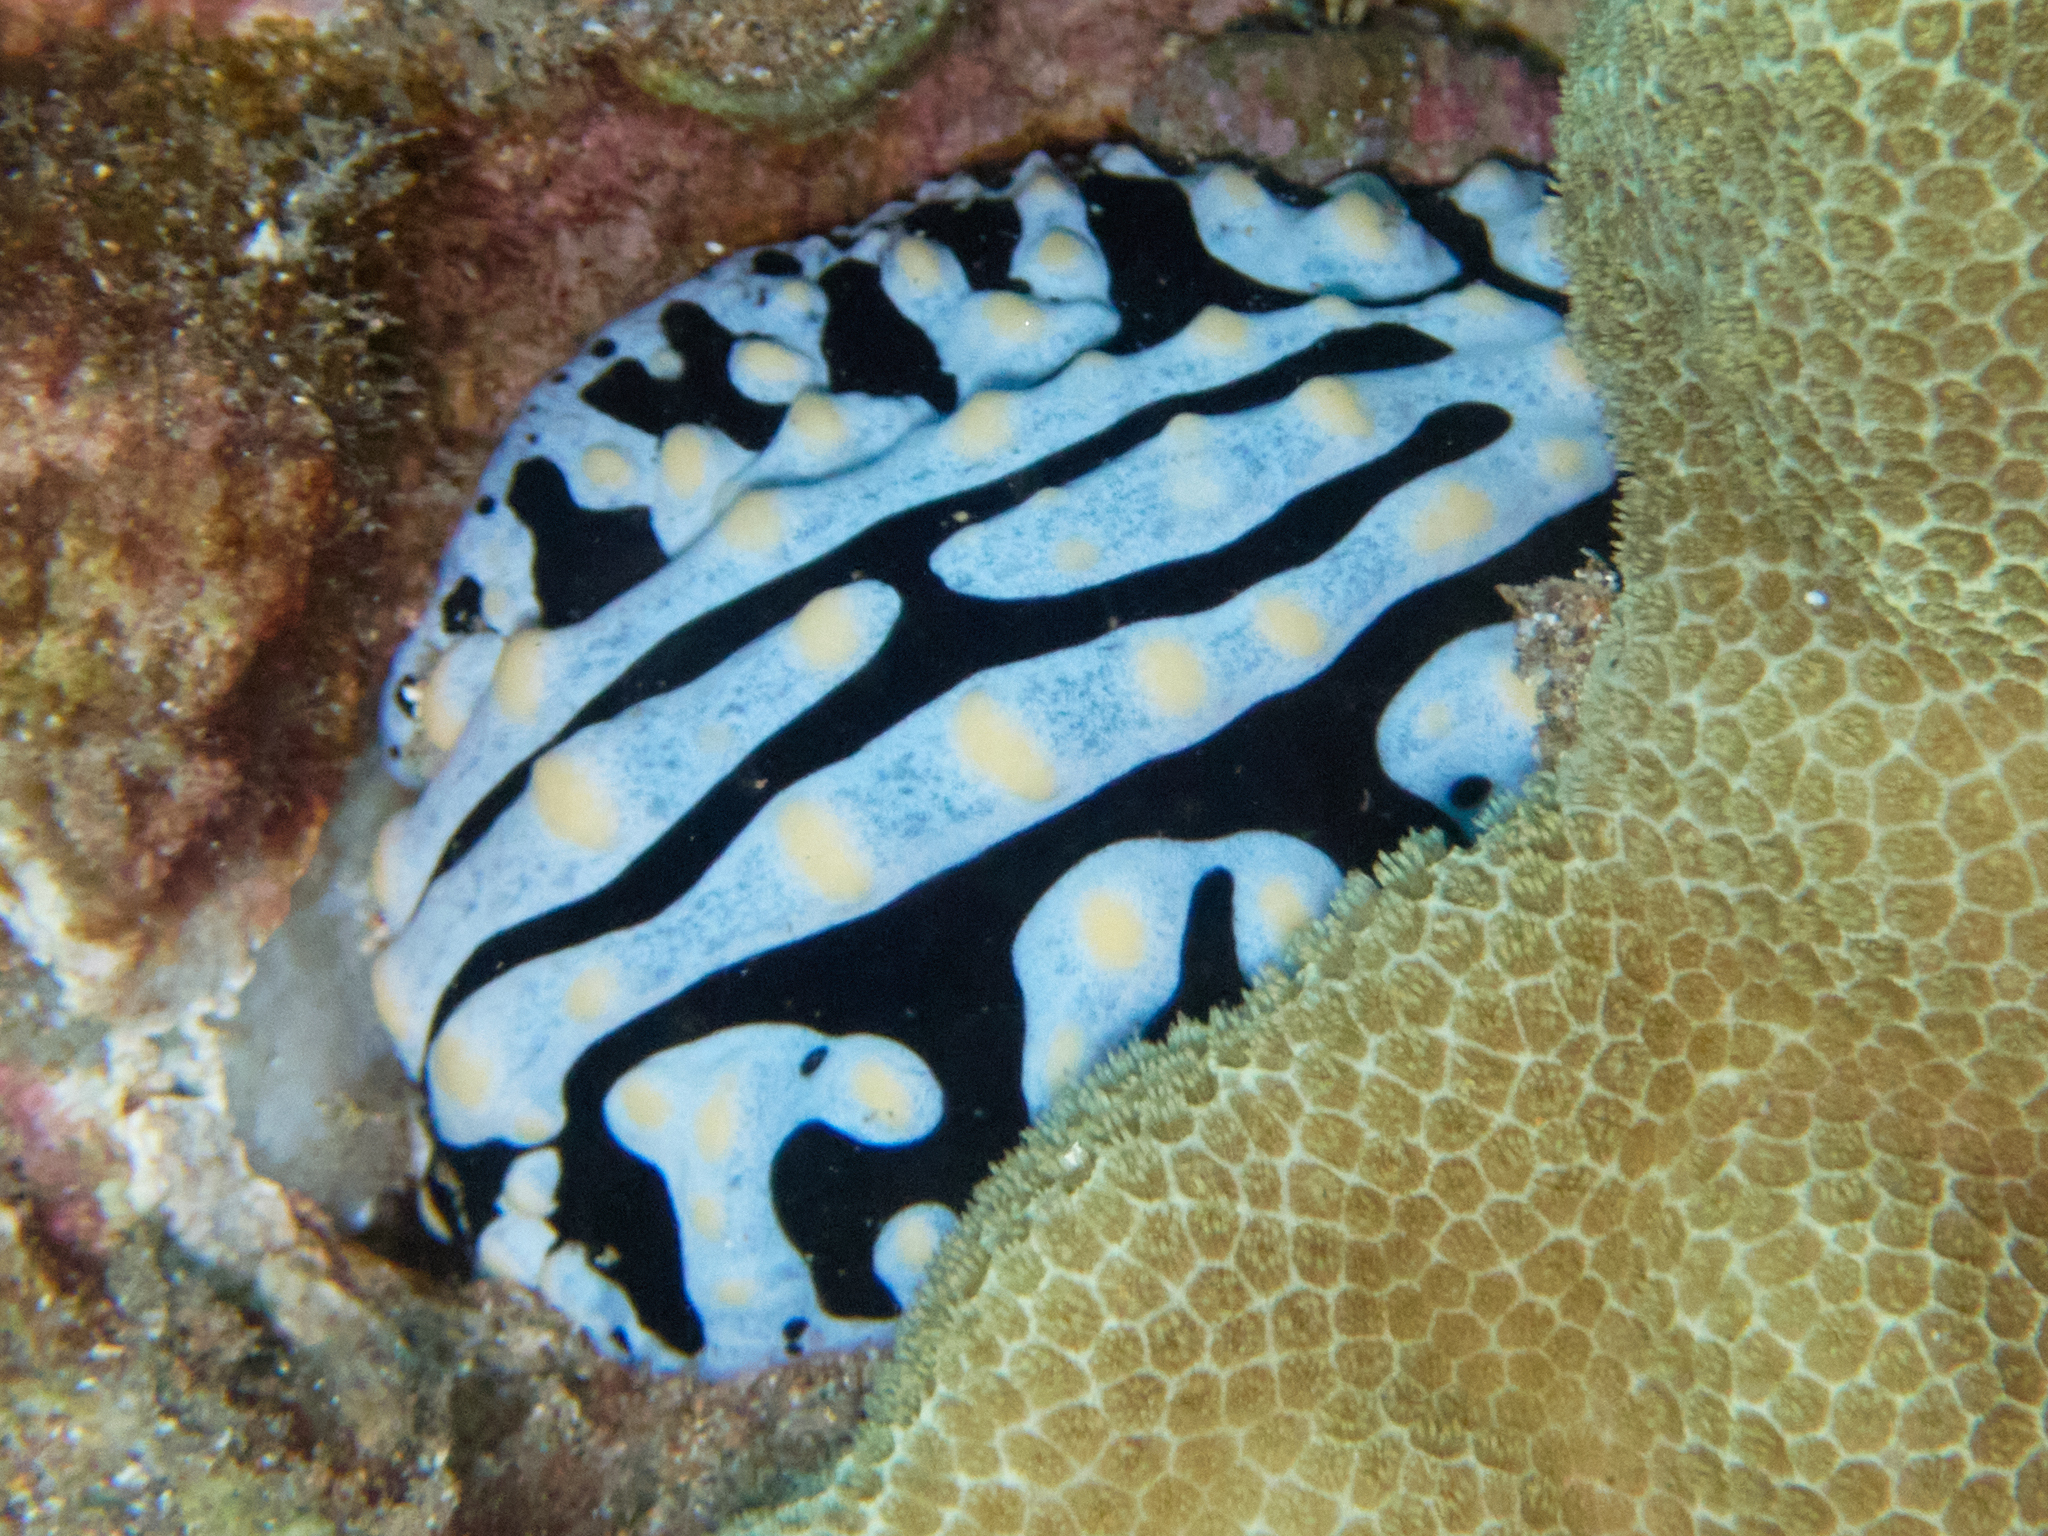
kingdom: Animalia
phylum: Mollusca
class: Gastropoda
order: Nudibranchia
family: Phyllidiidae
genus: Phyllidia
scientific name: Phyllidia varicosa
